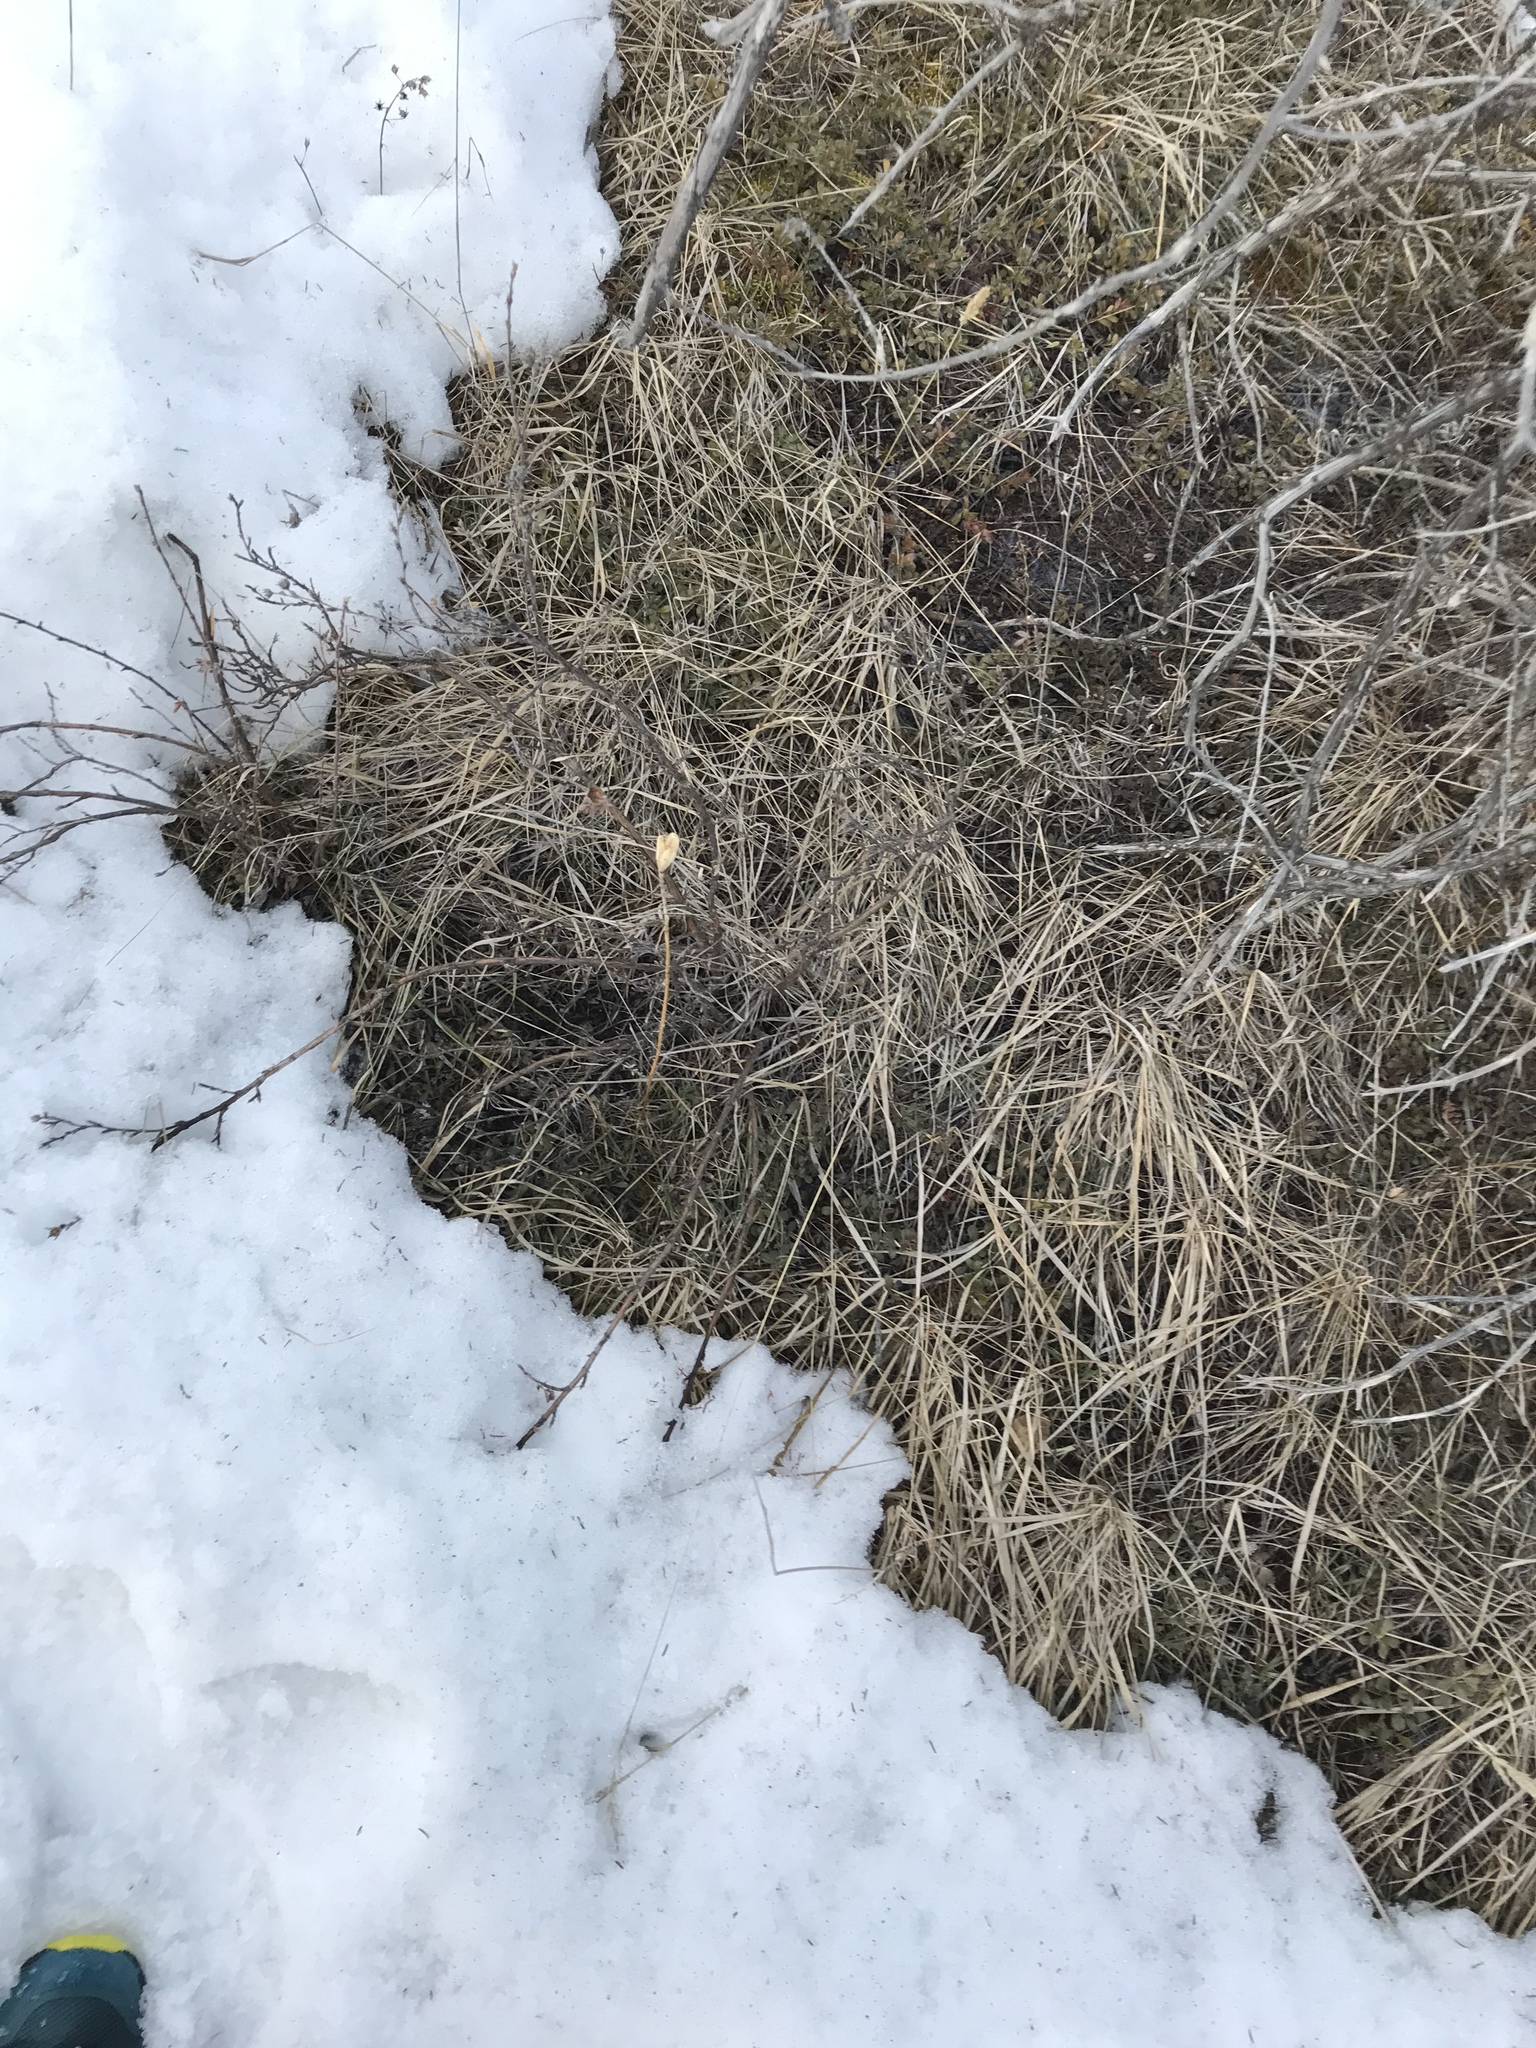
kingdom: Plantae
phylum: Tracheophyta
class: Liliopsida
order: Liliales
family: Liliaceae
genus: Lilium
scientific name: Lilium philadelphicum
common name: Red lily
